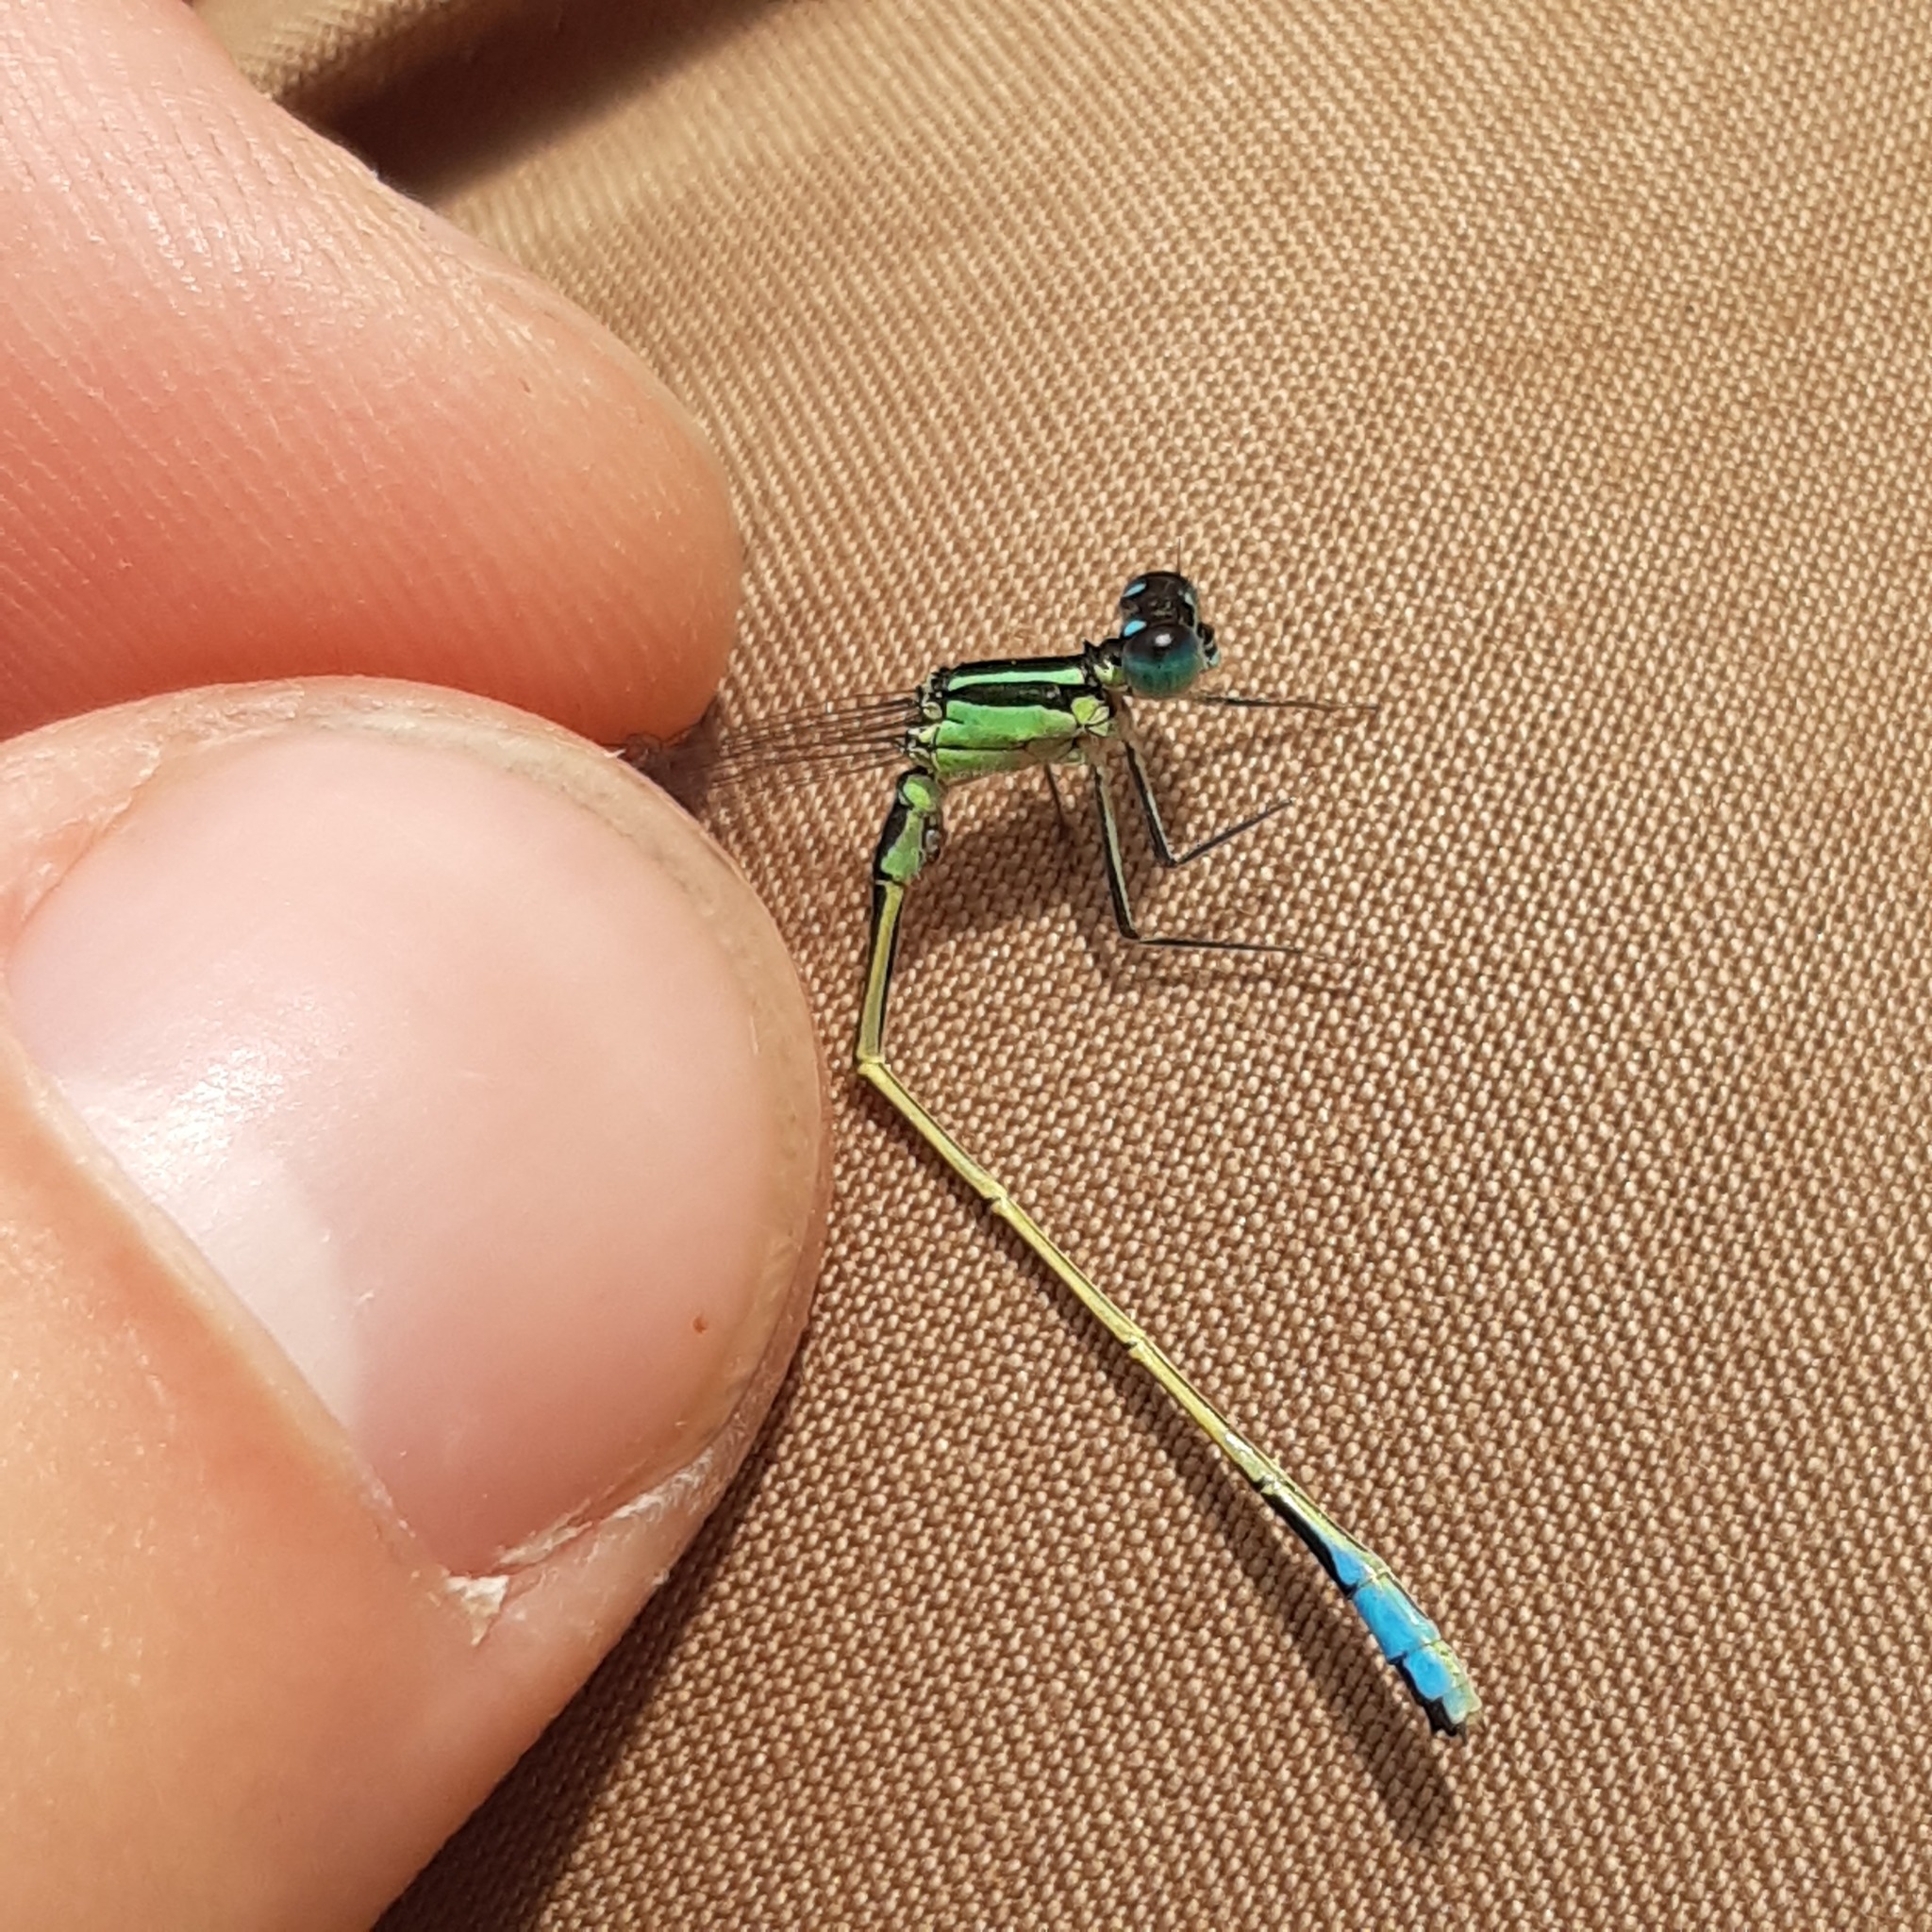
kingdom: Animalia
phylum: Arthropoda
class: Insecta
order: Odonata
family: Coenagrionidae
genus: Ischnura
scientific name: Ischnura elegans
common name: Blue-tailed damselfly
